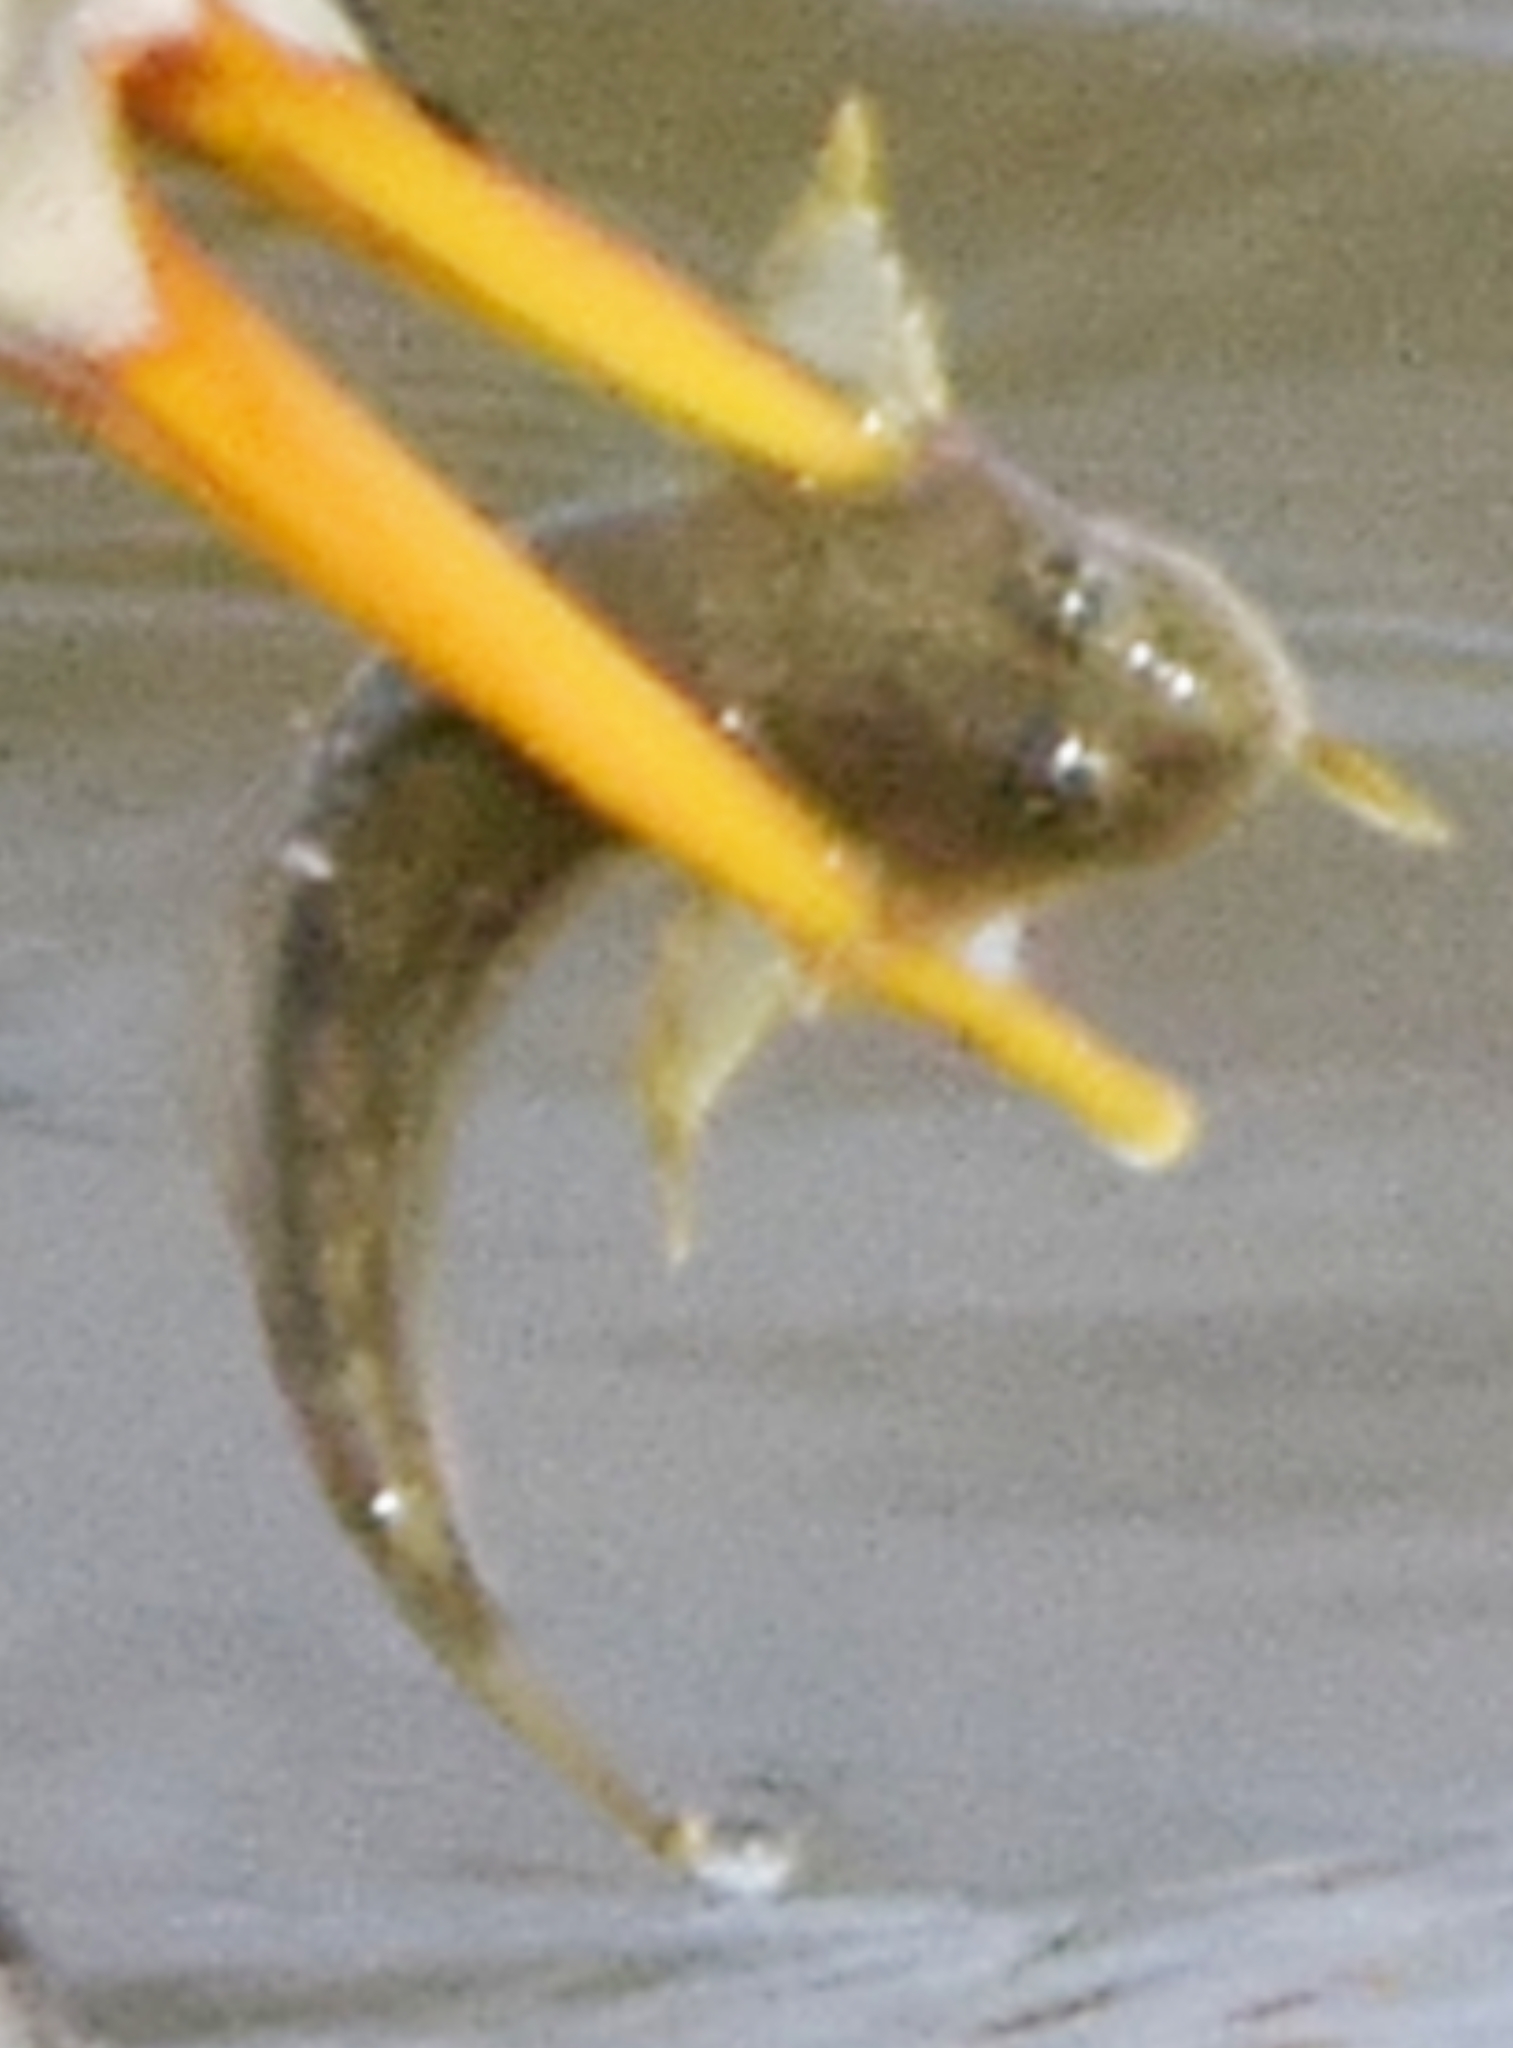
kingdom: Animalia
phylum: Chordata
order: Scorpaeniformes
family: Cottidae
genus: Leptocottus
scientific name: Leptocottus armatus
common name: Pacific staghorn sculpin
